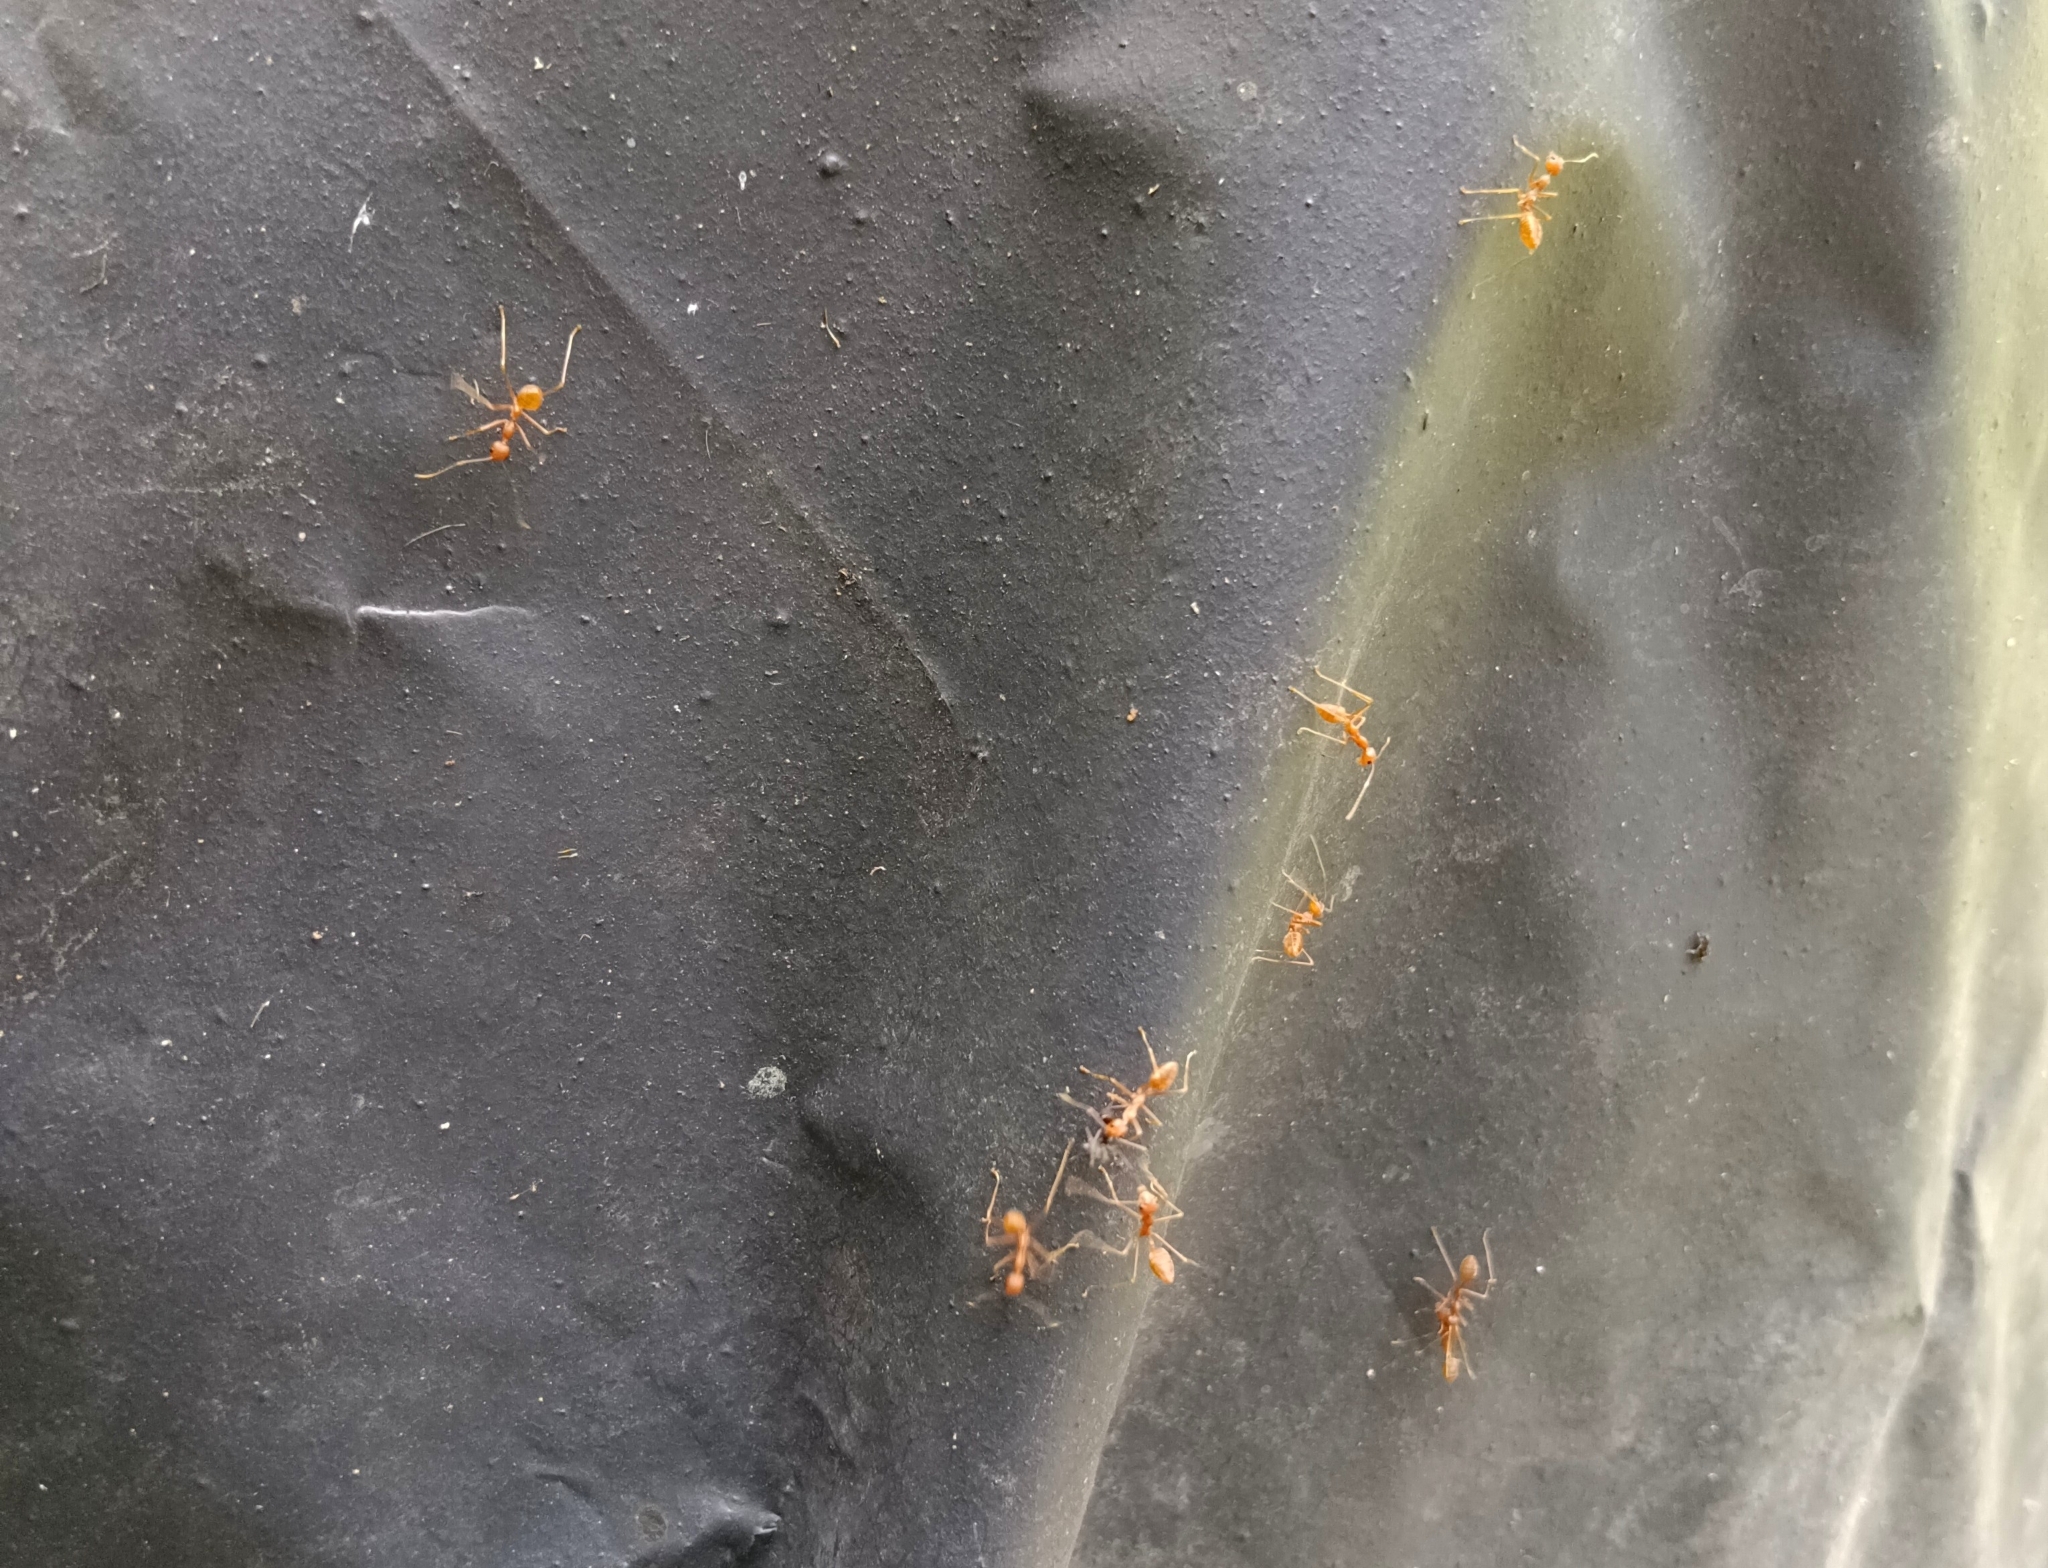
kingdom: Animalia
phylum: Arthropoda
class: Insecta
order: Hymenoptera
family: Formicidae
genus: Oecophylla
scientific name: Oecophylla smaragdina
